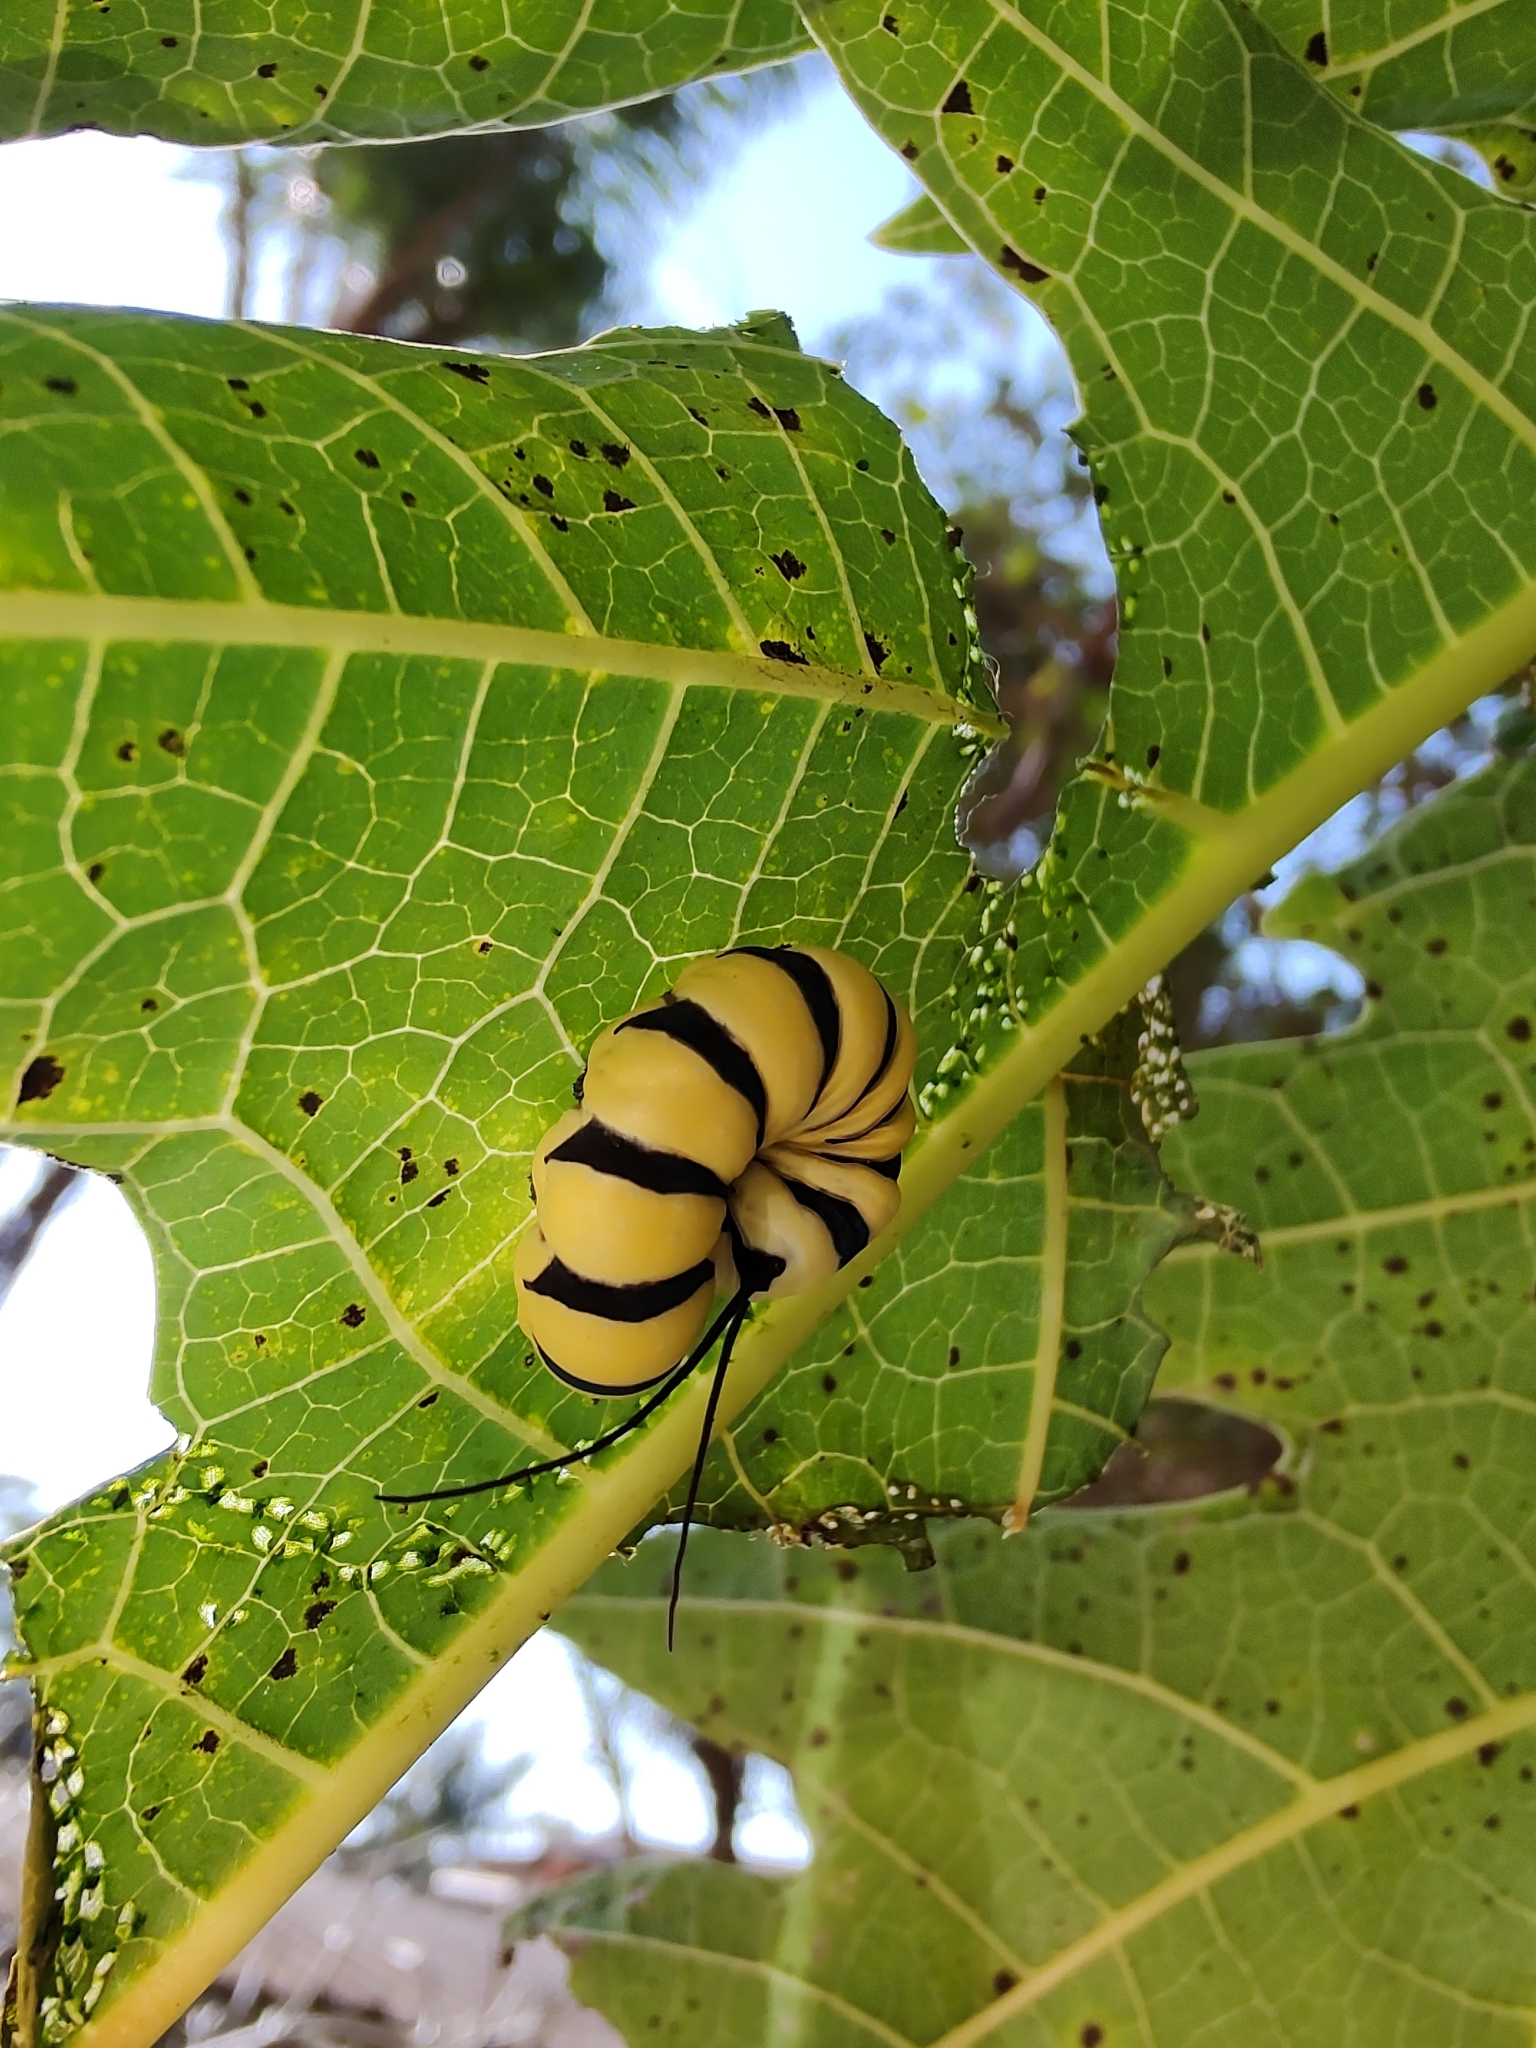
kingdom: Animalia
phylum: Arthropoda
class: Insecta
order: Lepidoptera
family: Nymphalidae
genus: Lycorea
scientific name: Lycorea cleobaea
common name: Tiger mimic-queen
